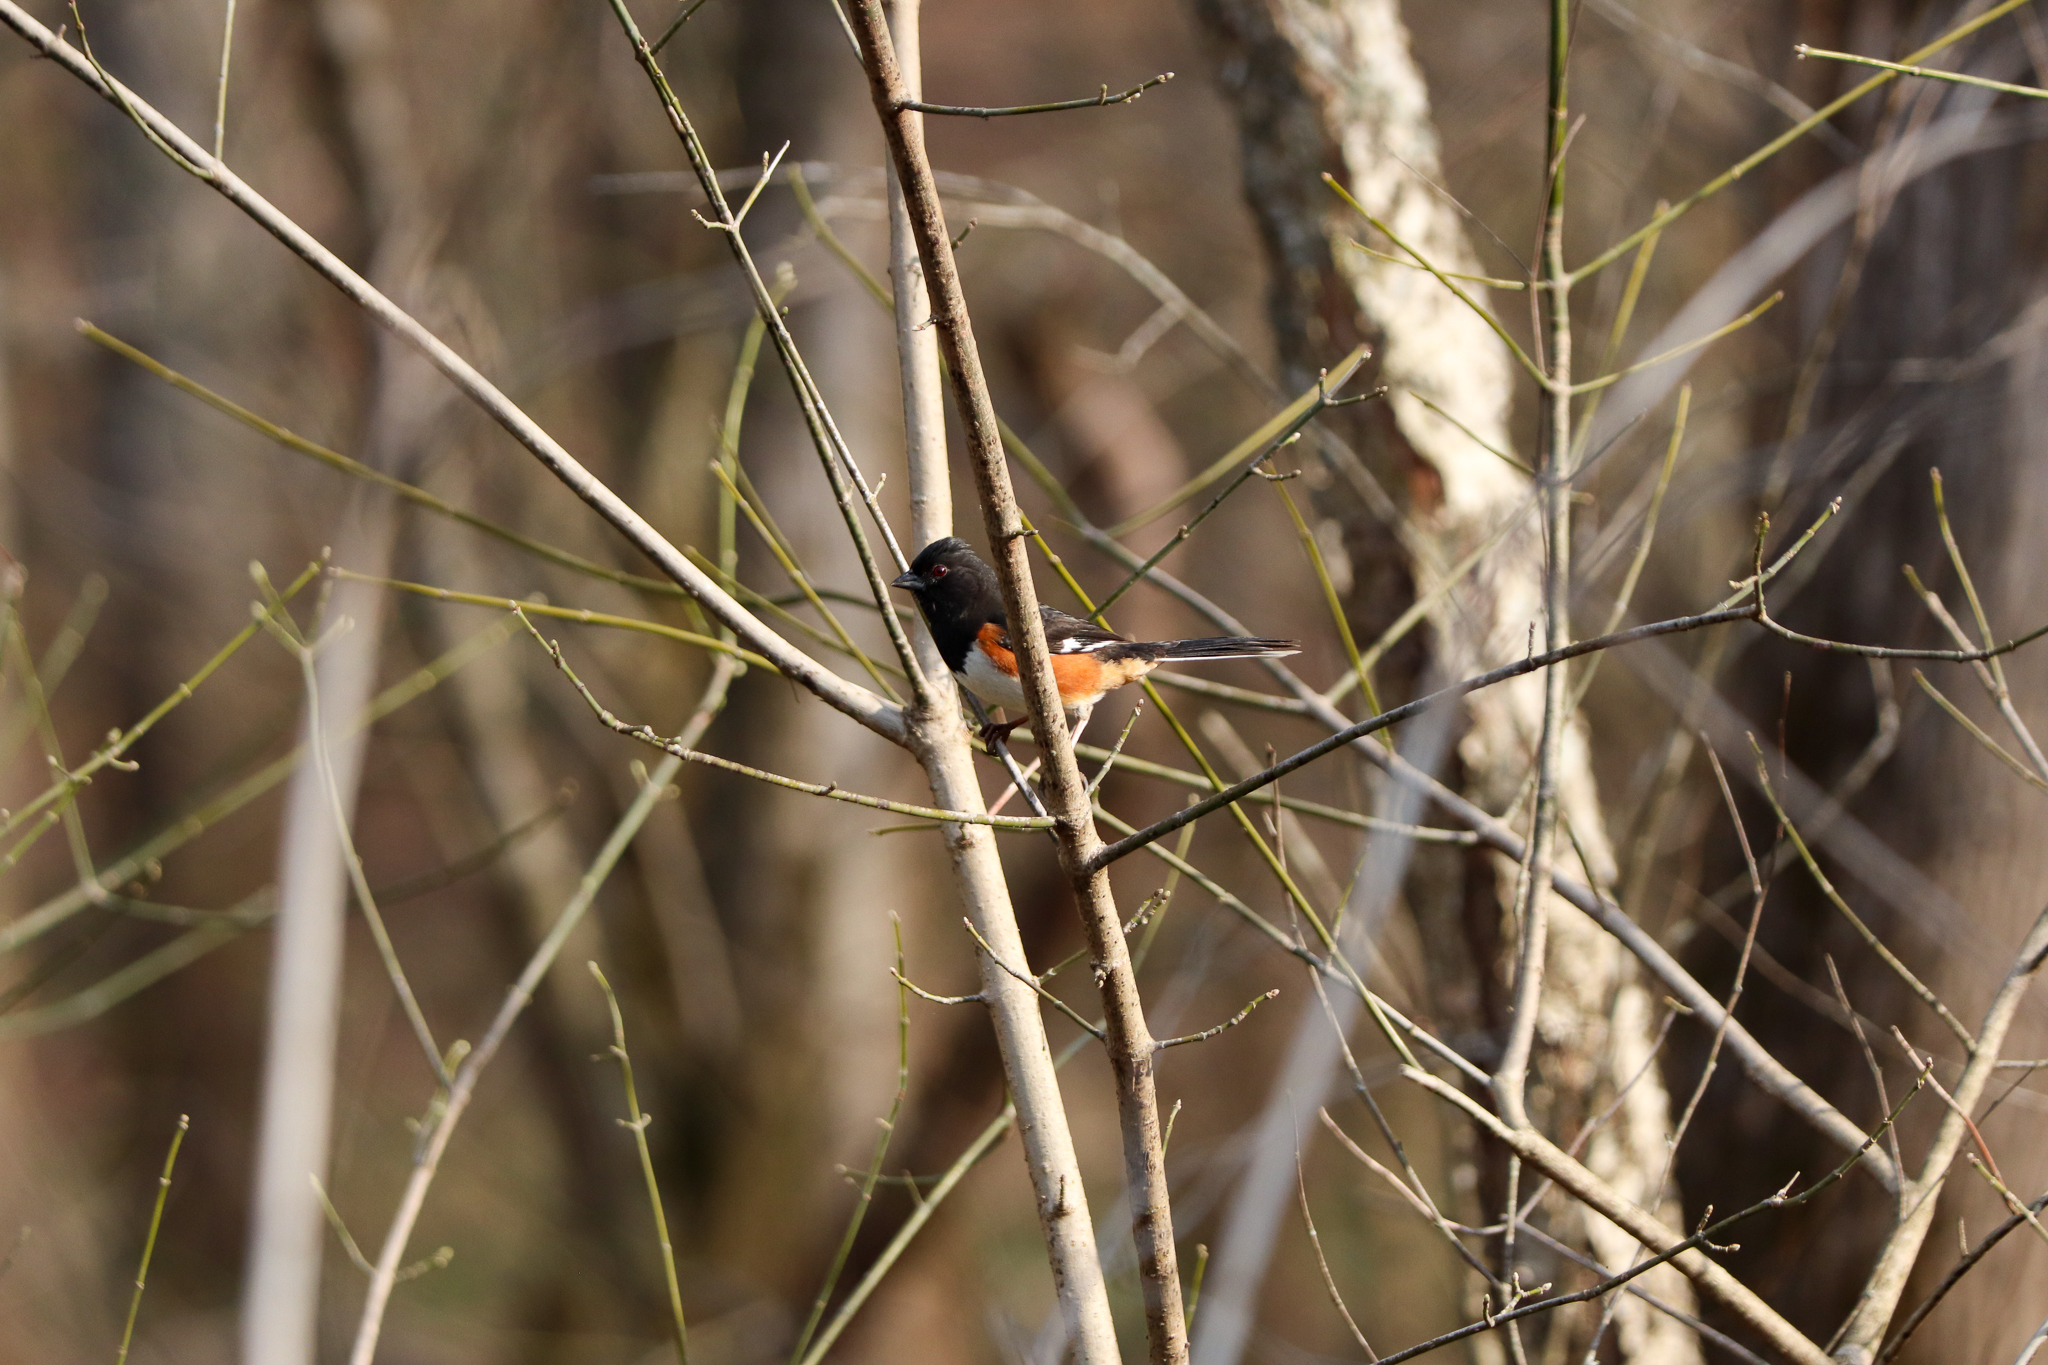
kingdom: Animalia
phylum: Chordata
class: Aves
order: Passeriformes
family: Passerellidae
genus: Pipilo
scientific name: Pipilo erythrophthalmus
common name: Eastern towhee
